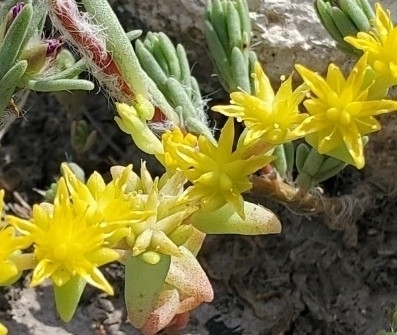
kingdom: Plantae
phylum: Tracheophyta
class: Magnoliopsida
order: Saxifragales
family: Crassulaceae
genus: Sedum
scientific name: Sedum nuttallii
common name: Yellow stonecrop
